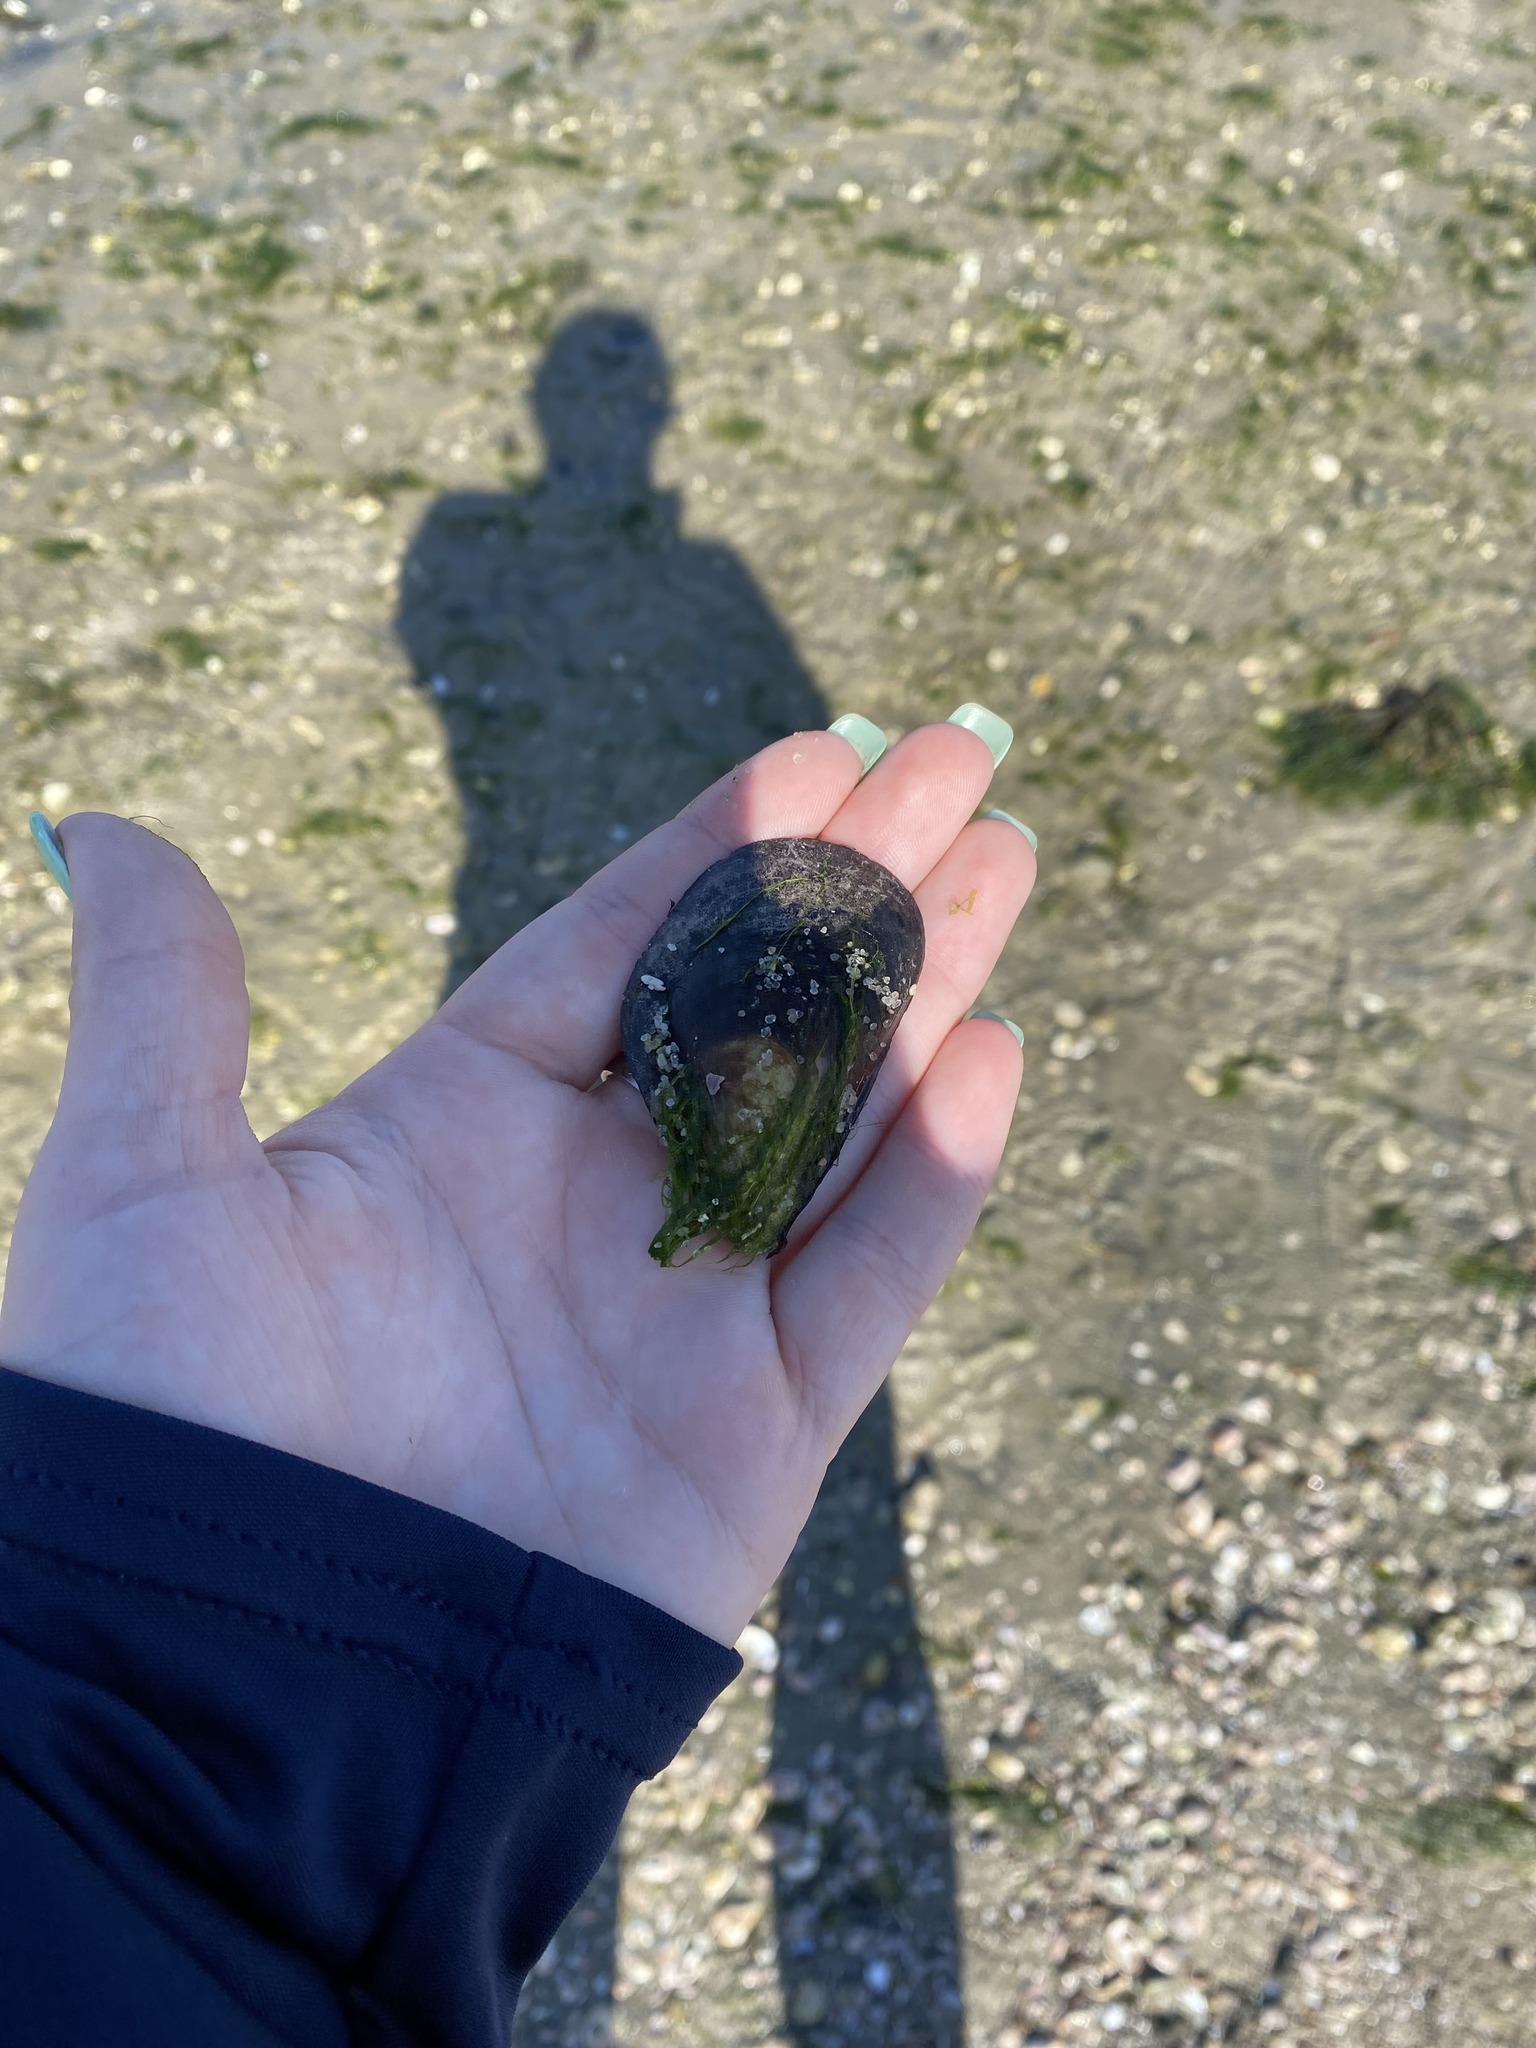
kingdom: Animalia
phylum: Mollusca
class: Bivalvia
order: Mytilida
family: Mytilidae
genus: Mytilus
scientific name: Mytilus edulis
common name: Blue mussel
